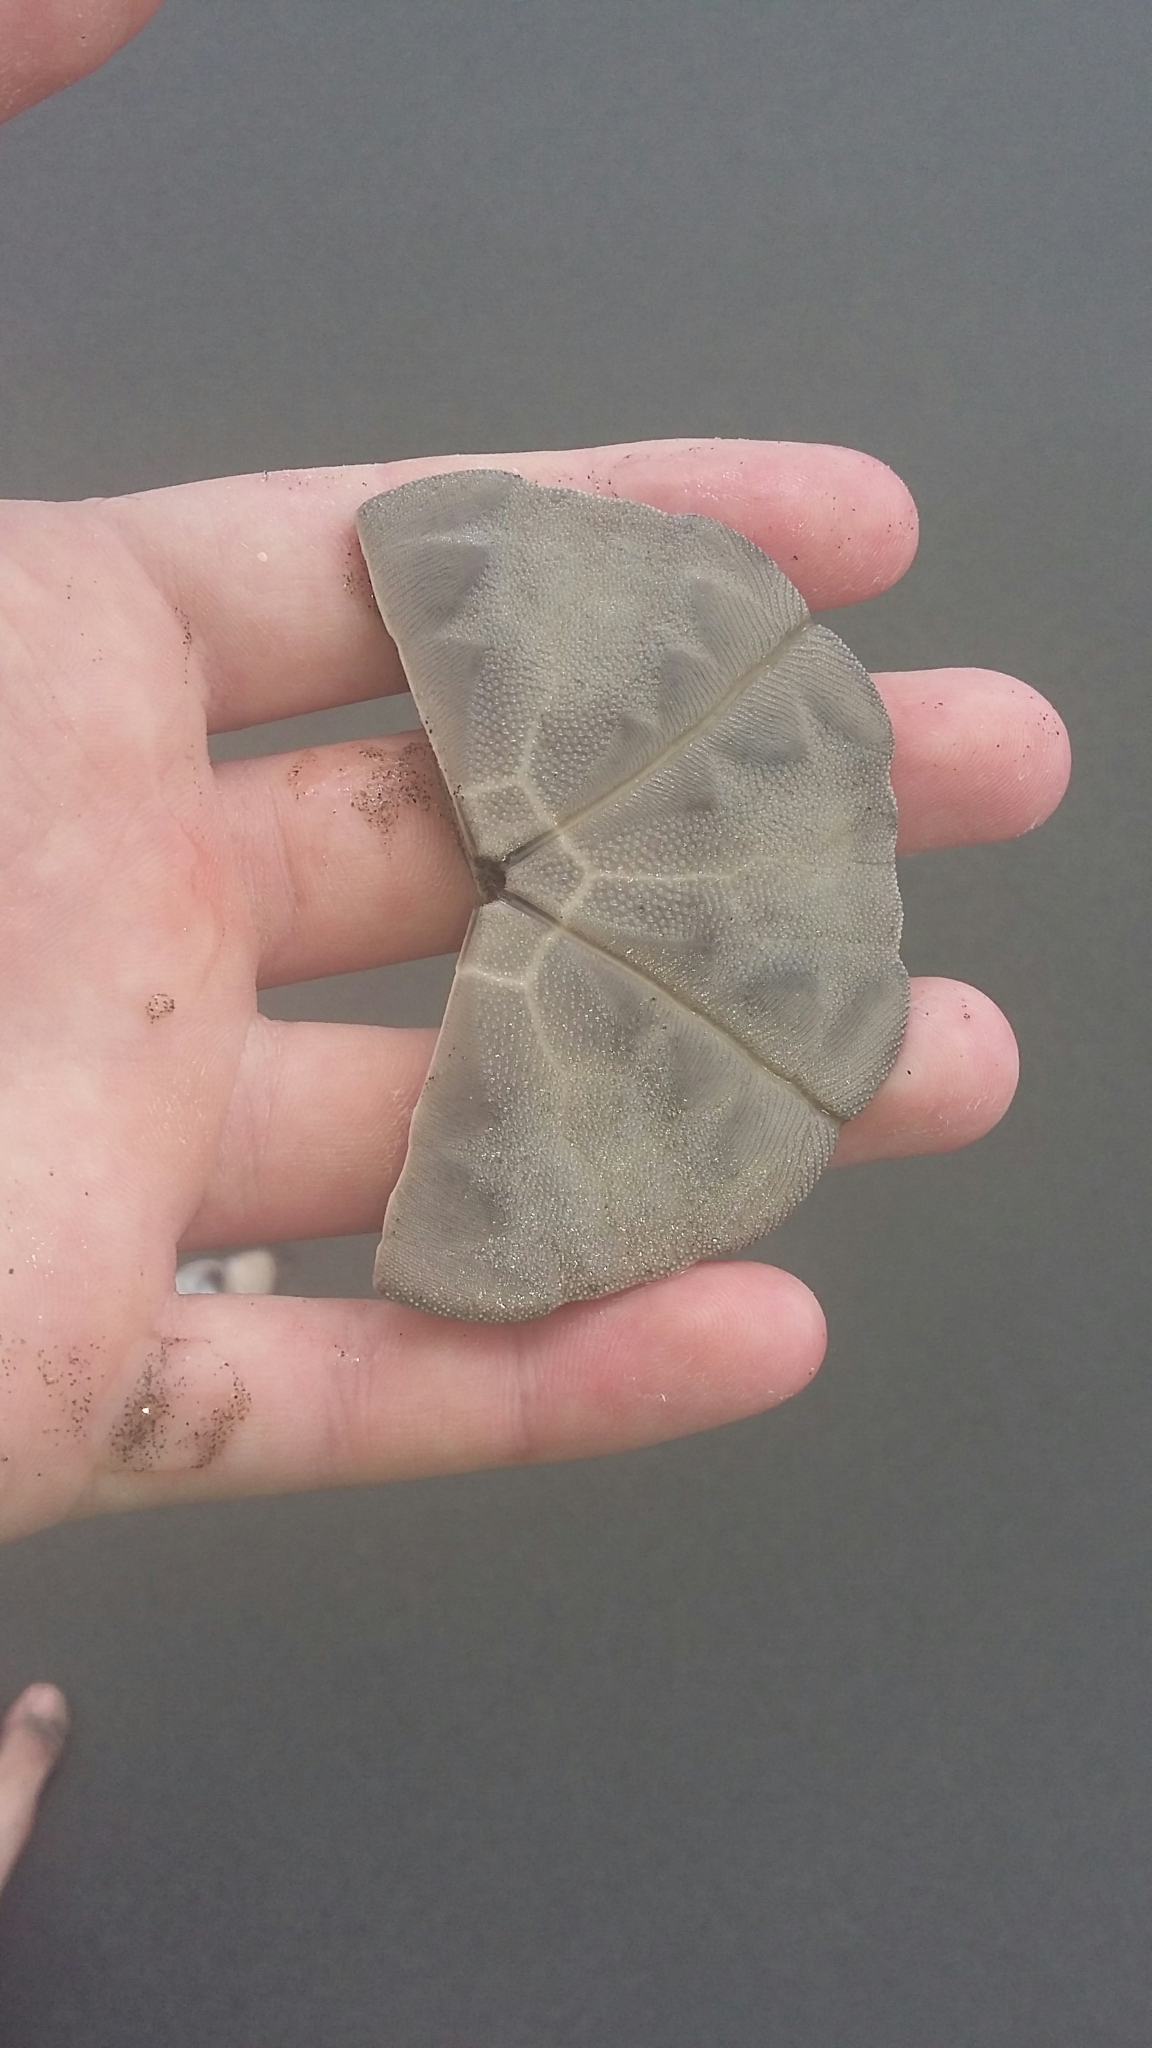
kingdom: Animalia
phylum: Echinodermata
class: Echinoidea
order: Clypeasteroida
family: Clypeasteridae
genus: Fellaster
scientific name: Fellaster zelandiae
